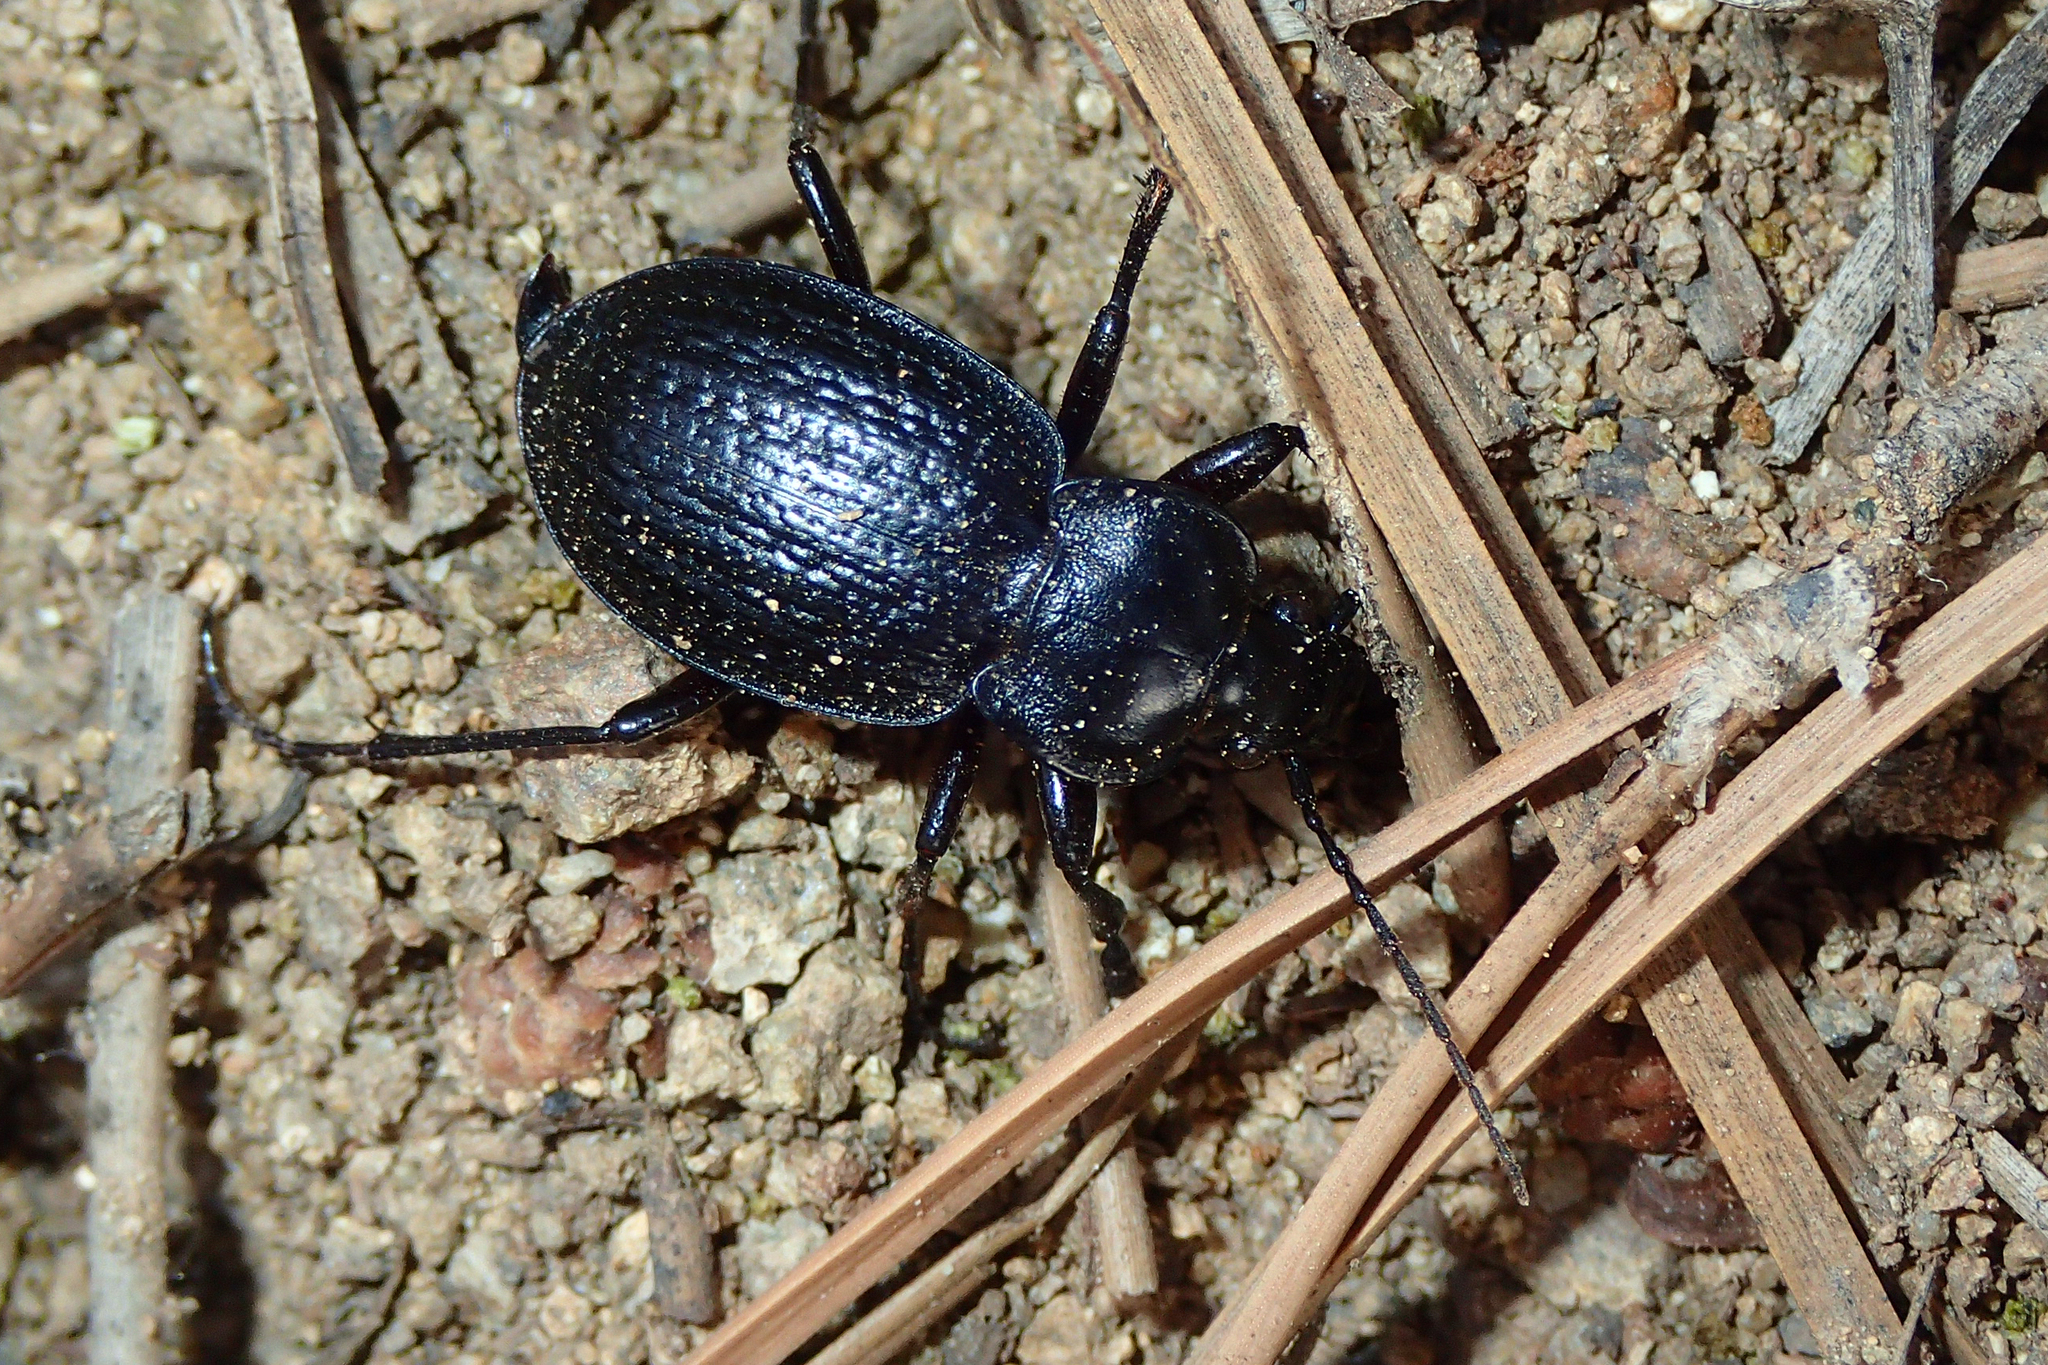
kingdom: Animalia
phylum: Arthropoda
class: Insecta
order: Coleoptera
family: Carabidae
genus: Carabus
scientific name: Carabus faminii
